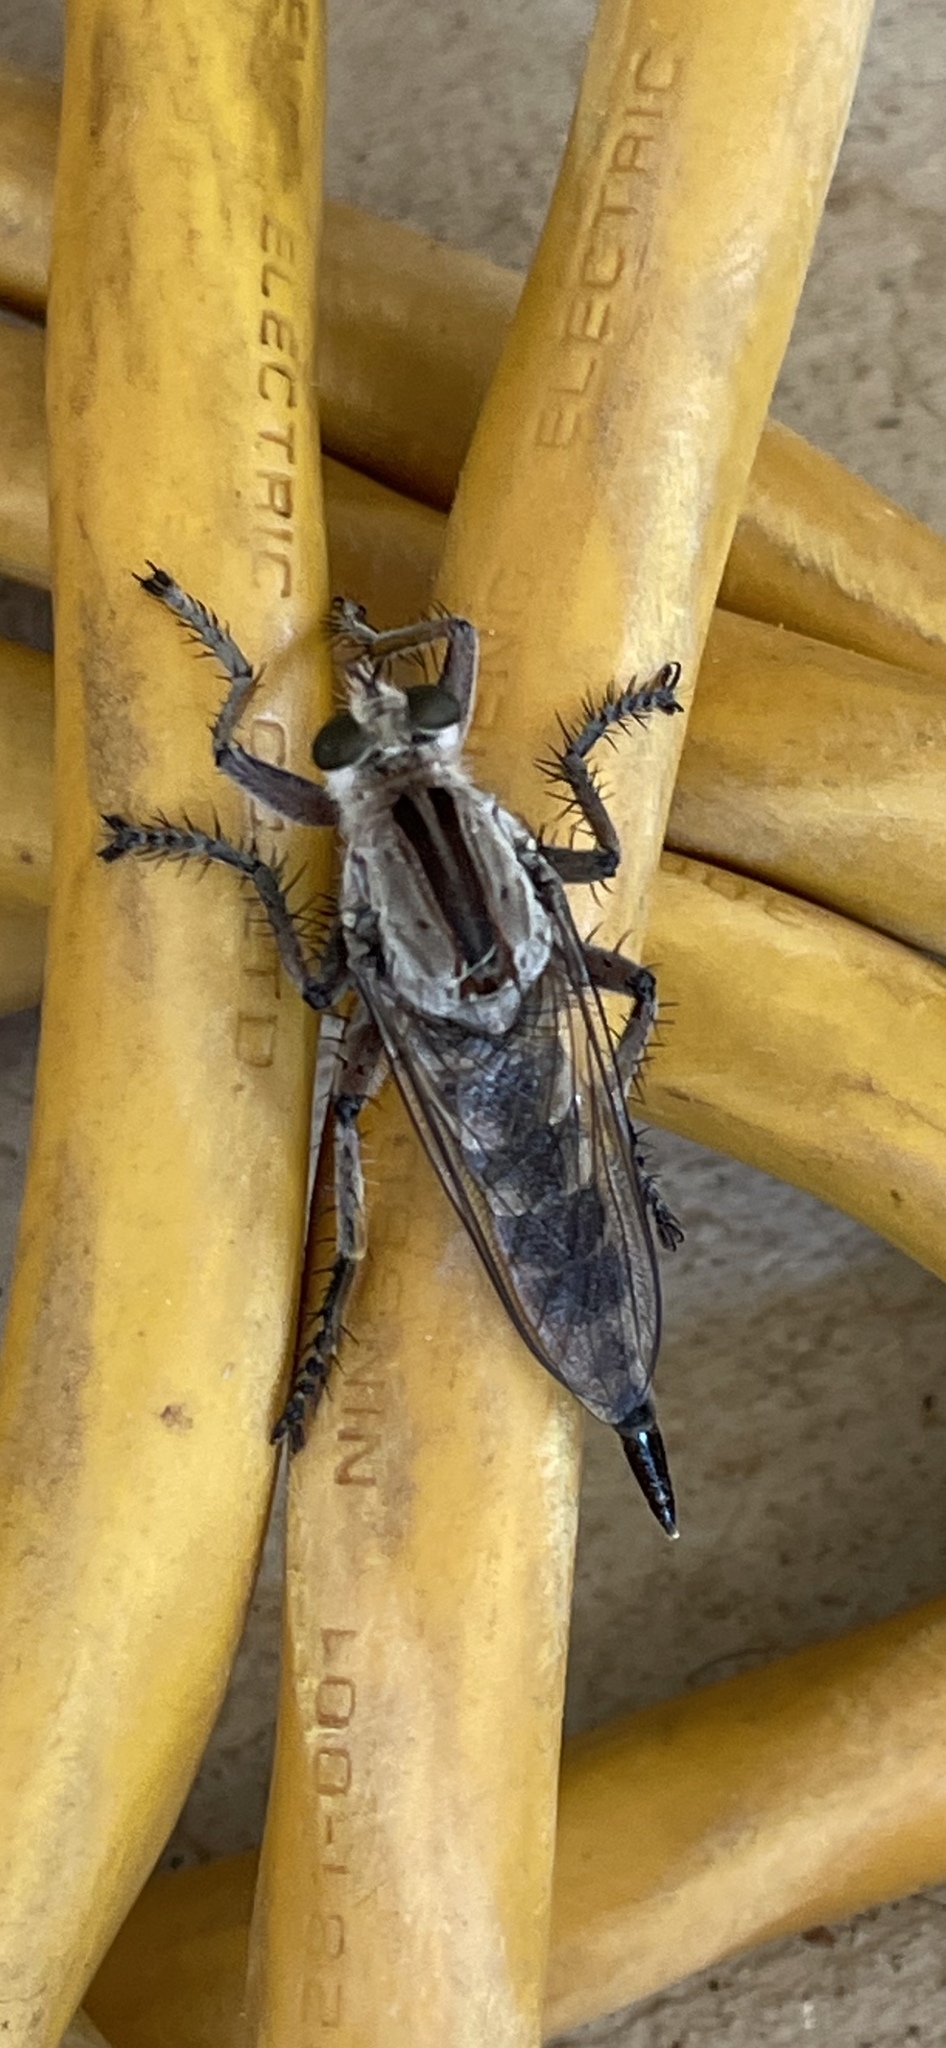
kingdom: Animalia
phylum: Arthropoda
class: Insecta
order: Diptera
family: Asilidae
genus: Triorla
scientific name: Triorla interrupta
